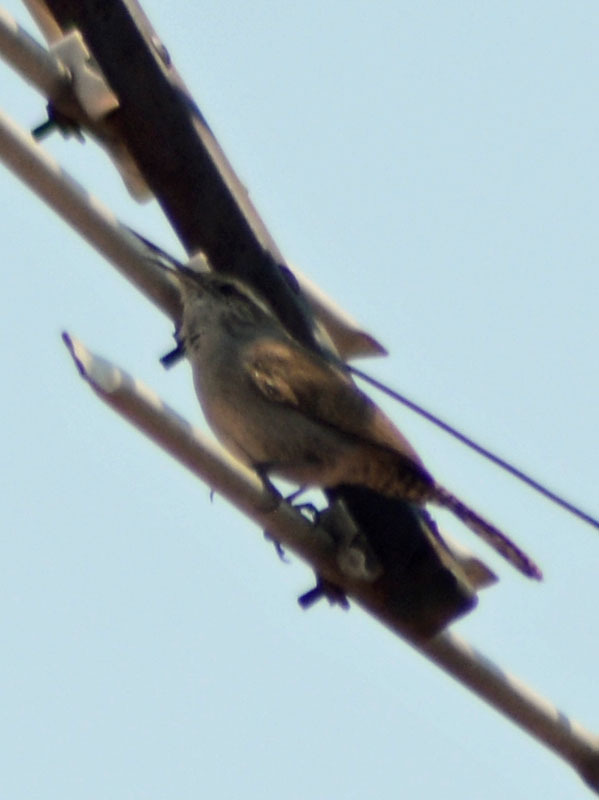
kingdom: Animalia
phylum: Chordata
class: Aves
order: Passeriformes
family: Troglodytidae
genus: Thryomanes
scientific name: Thryomanes bewickii
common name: Bewick's wren
